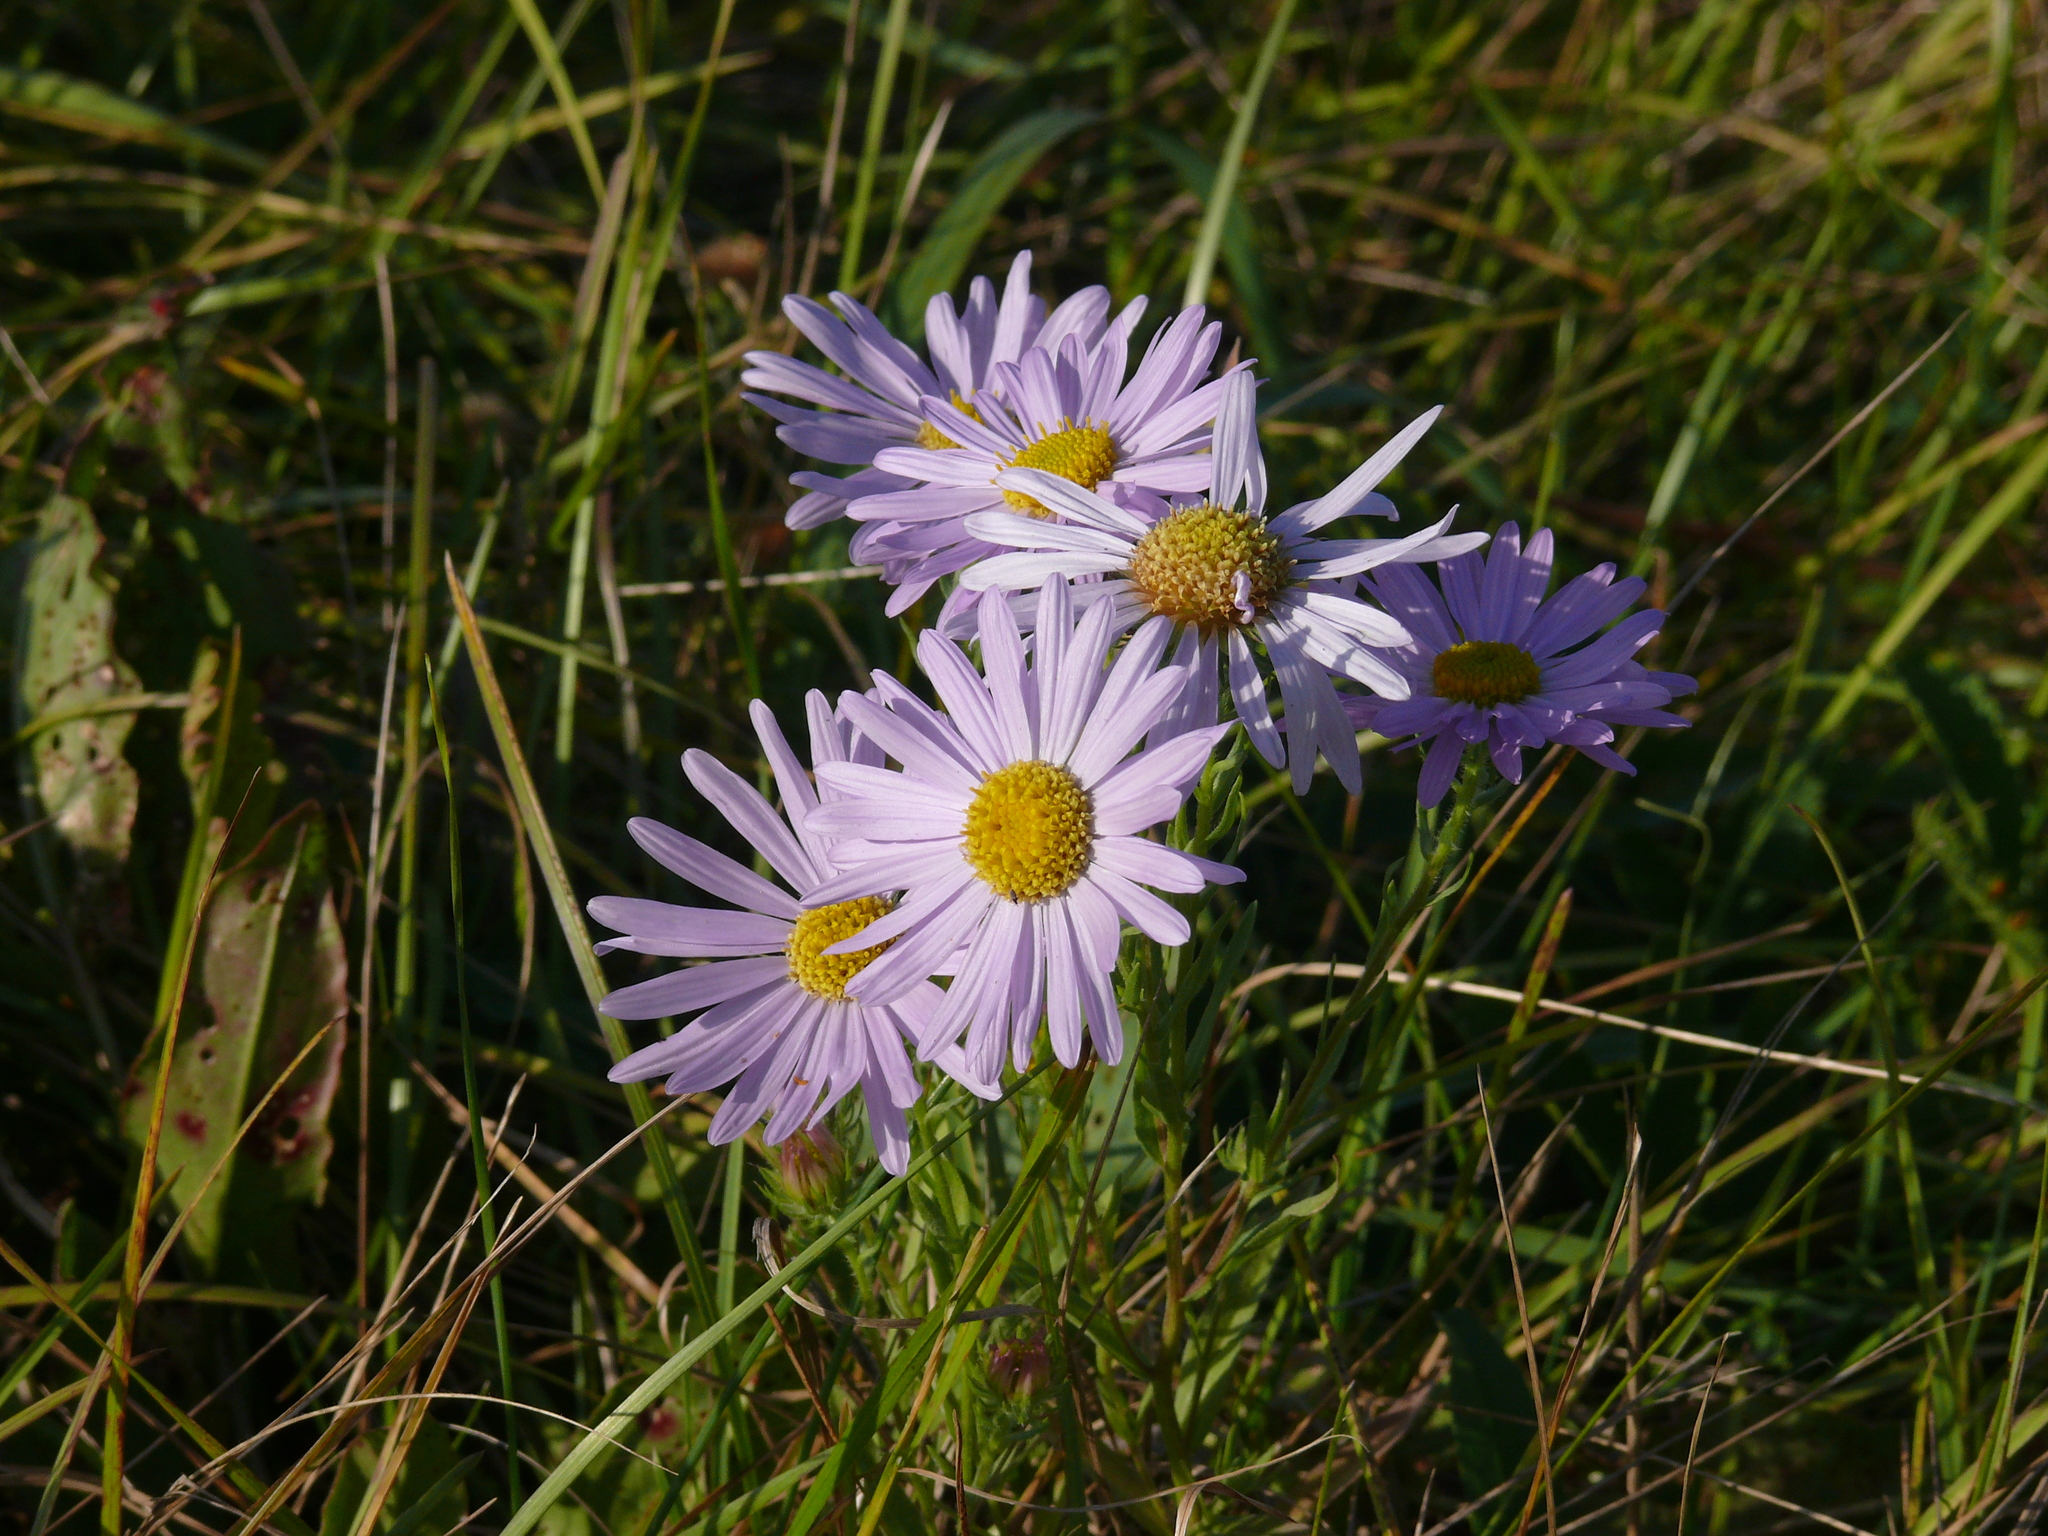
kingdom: Plantae
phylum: Tracheophyta
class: Magnoliopsida
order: Asterales
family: Asteraceae
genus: Aster
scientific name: Aster biennis
